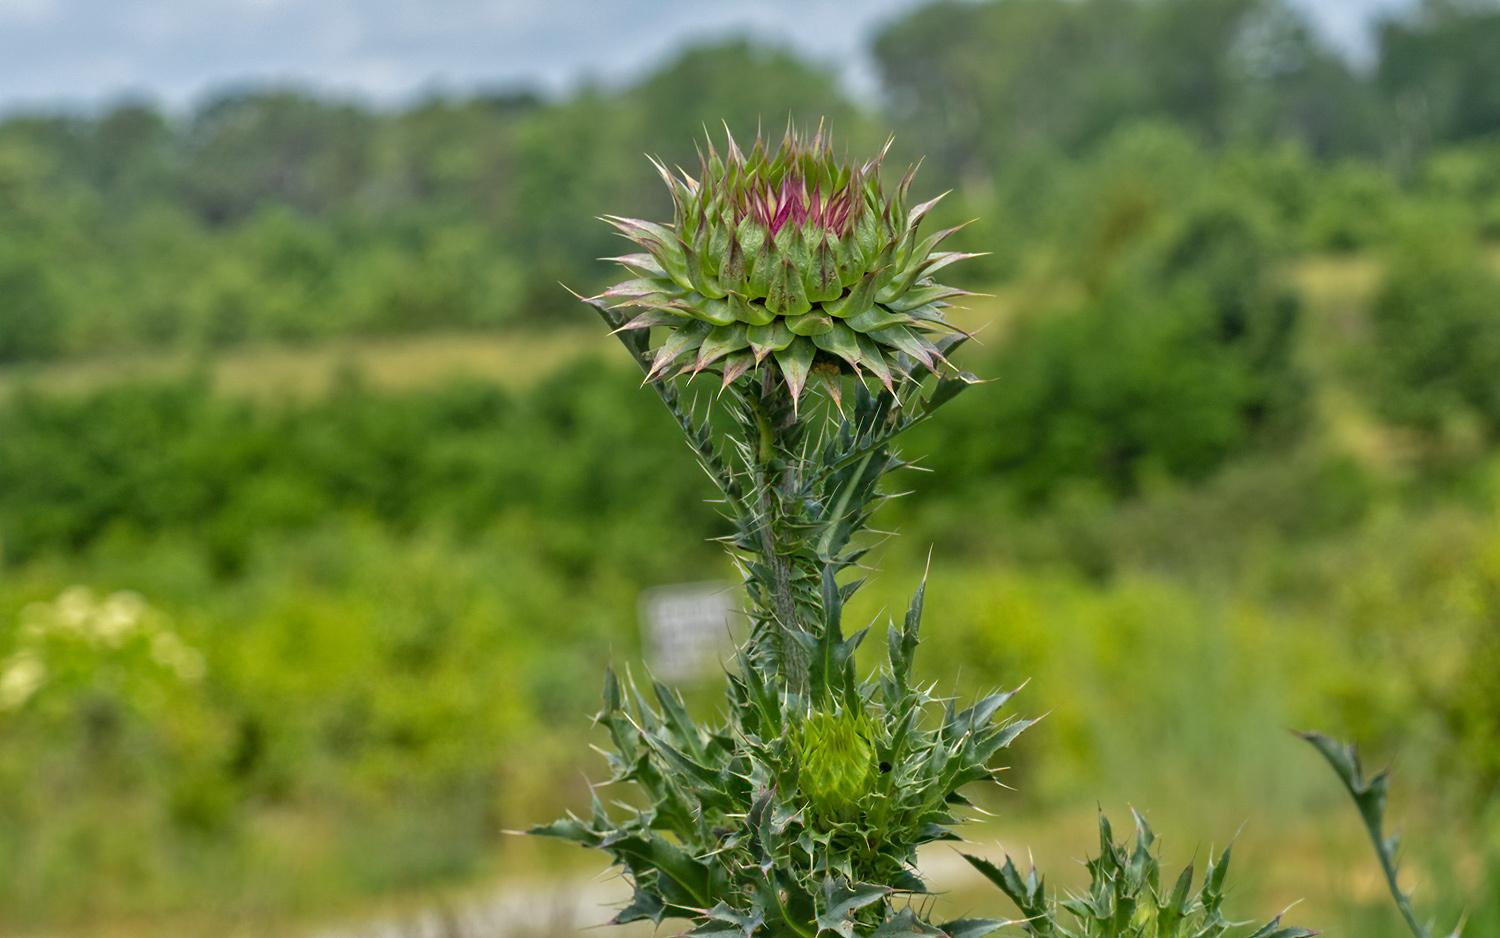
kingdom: Plantae
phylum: Tracheophyta
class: Magnoliopsida
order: Asterales
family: Asteraceae
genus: Carduus
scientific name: Carduus nutans
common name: Musk thistle
